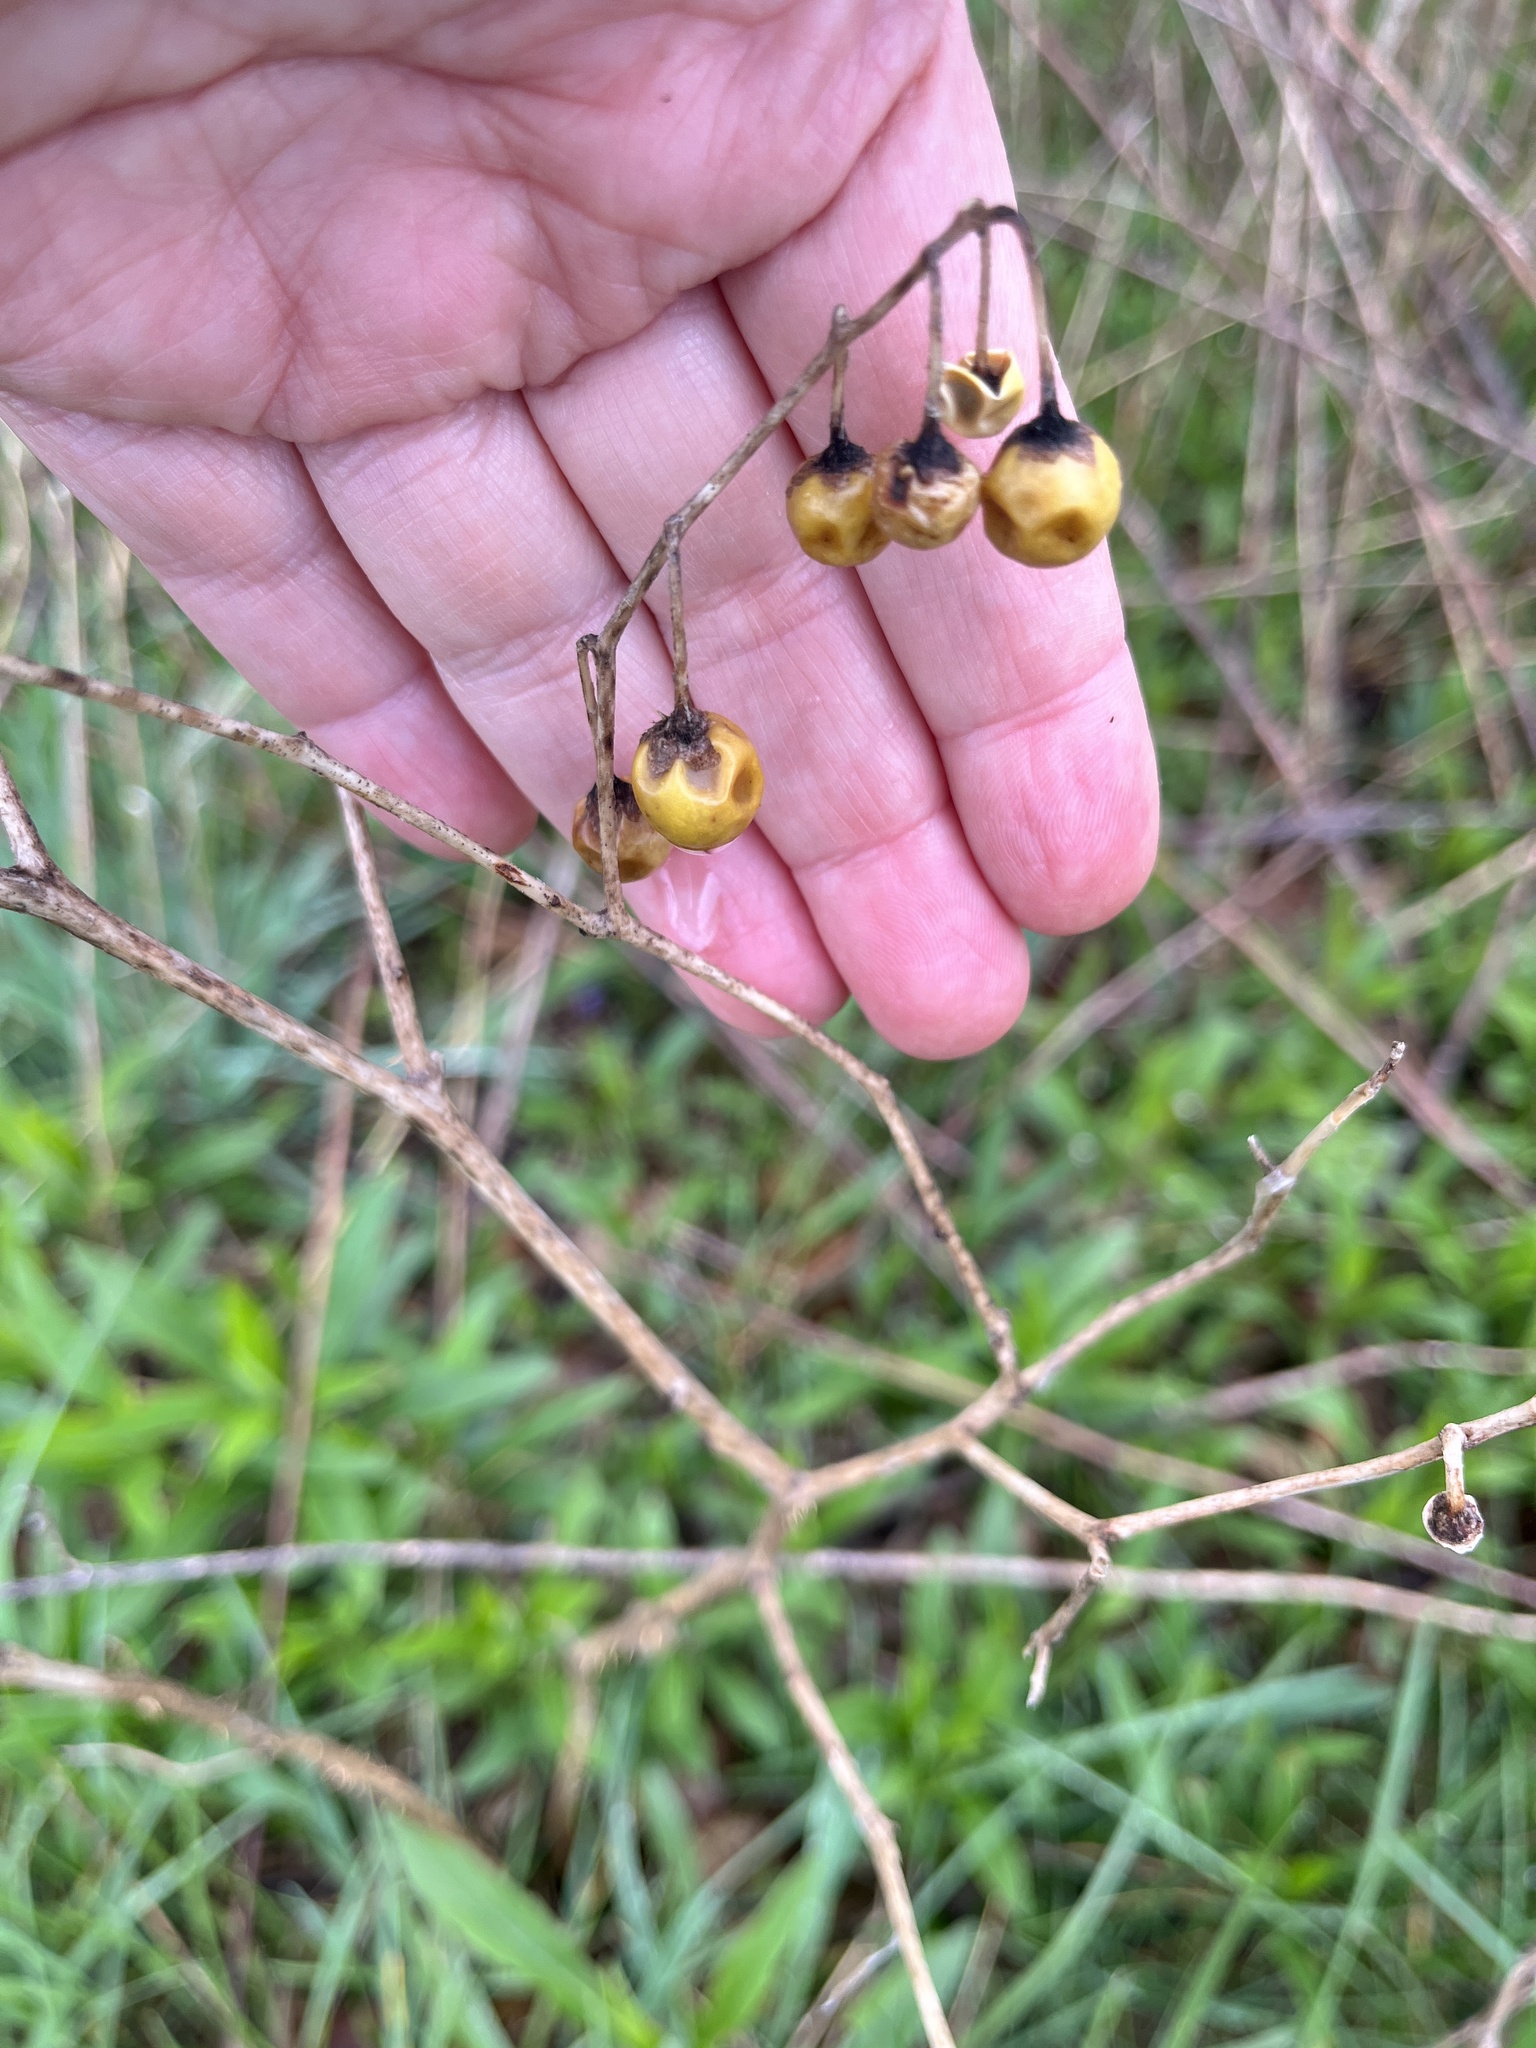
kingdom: Plantae
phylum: Tracheophyta
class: Magnoliopsida
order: Solanales
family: Solanaceae
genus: Solanum
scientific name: Solanum carolinense
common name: Horse-nettle
